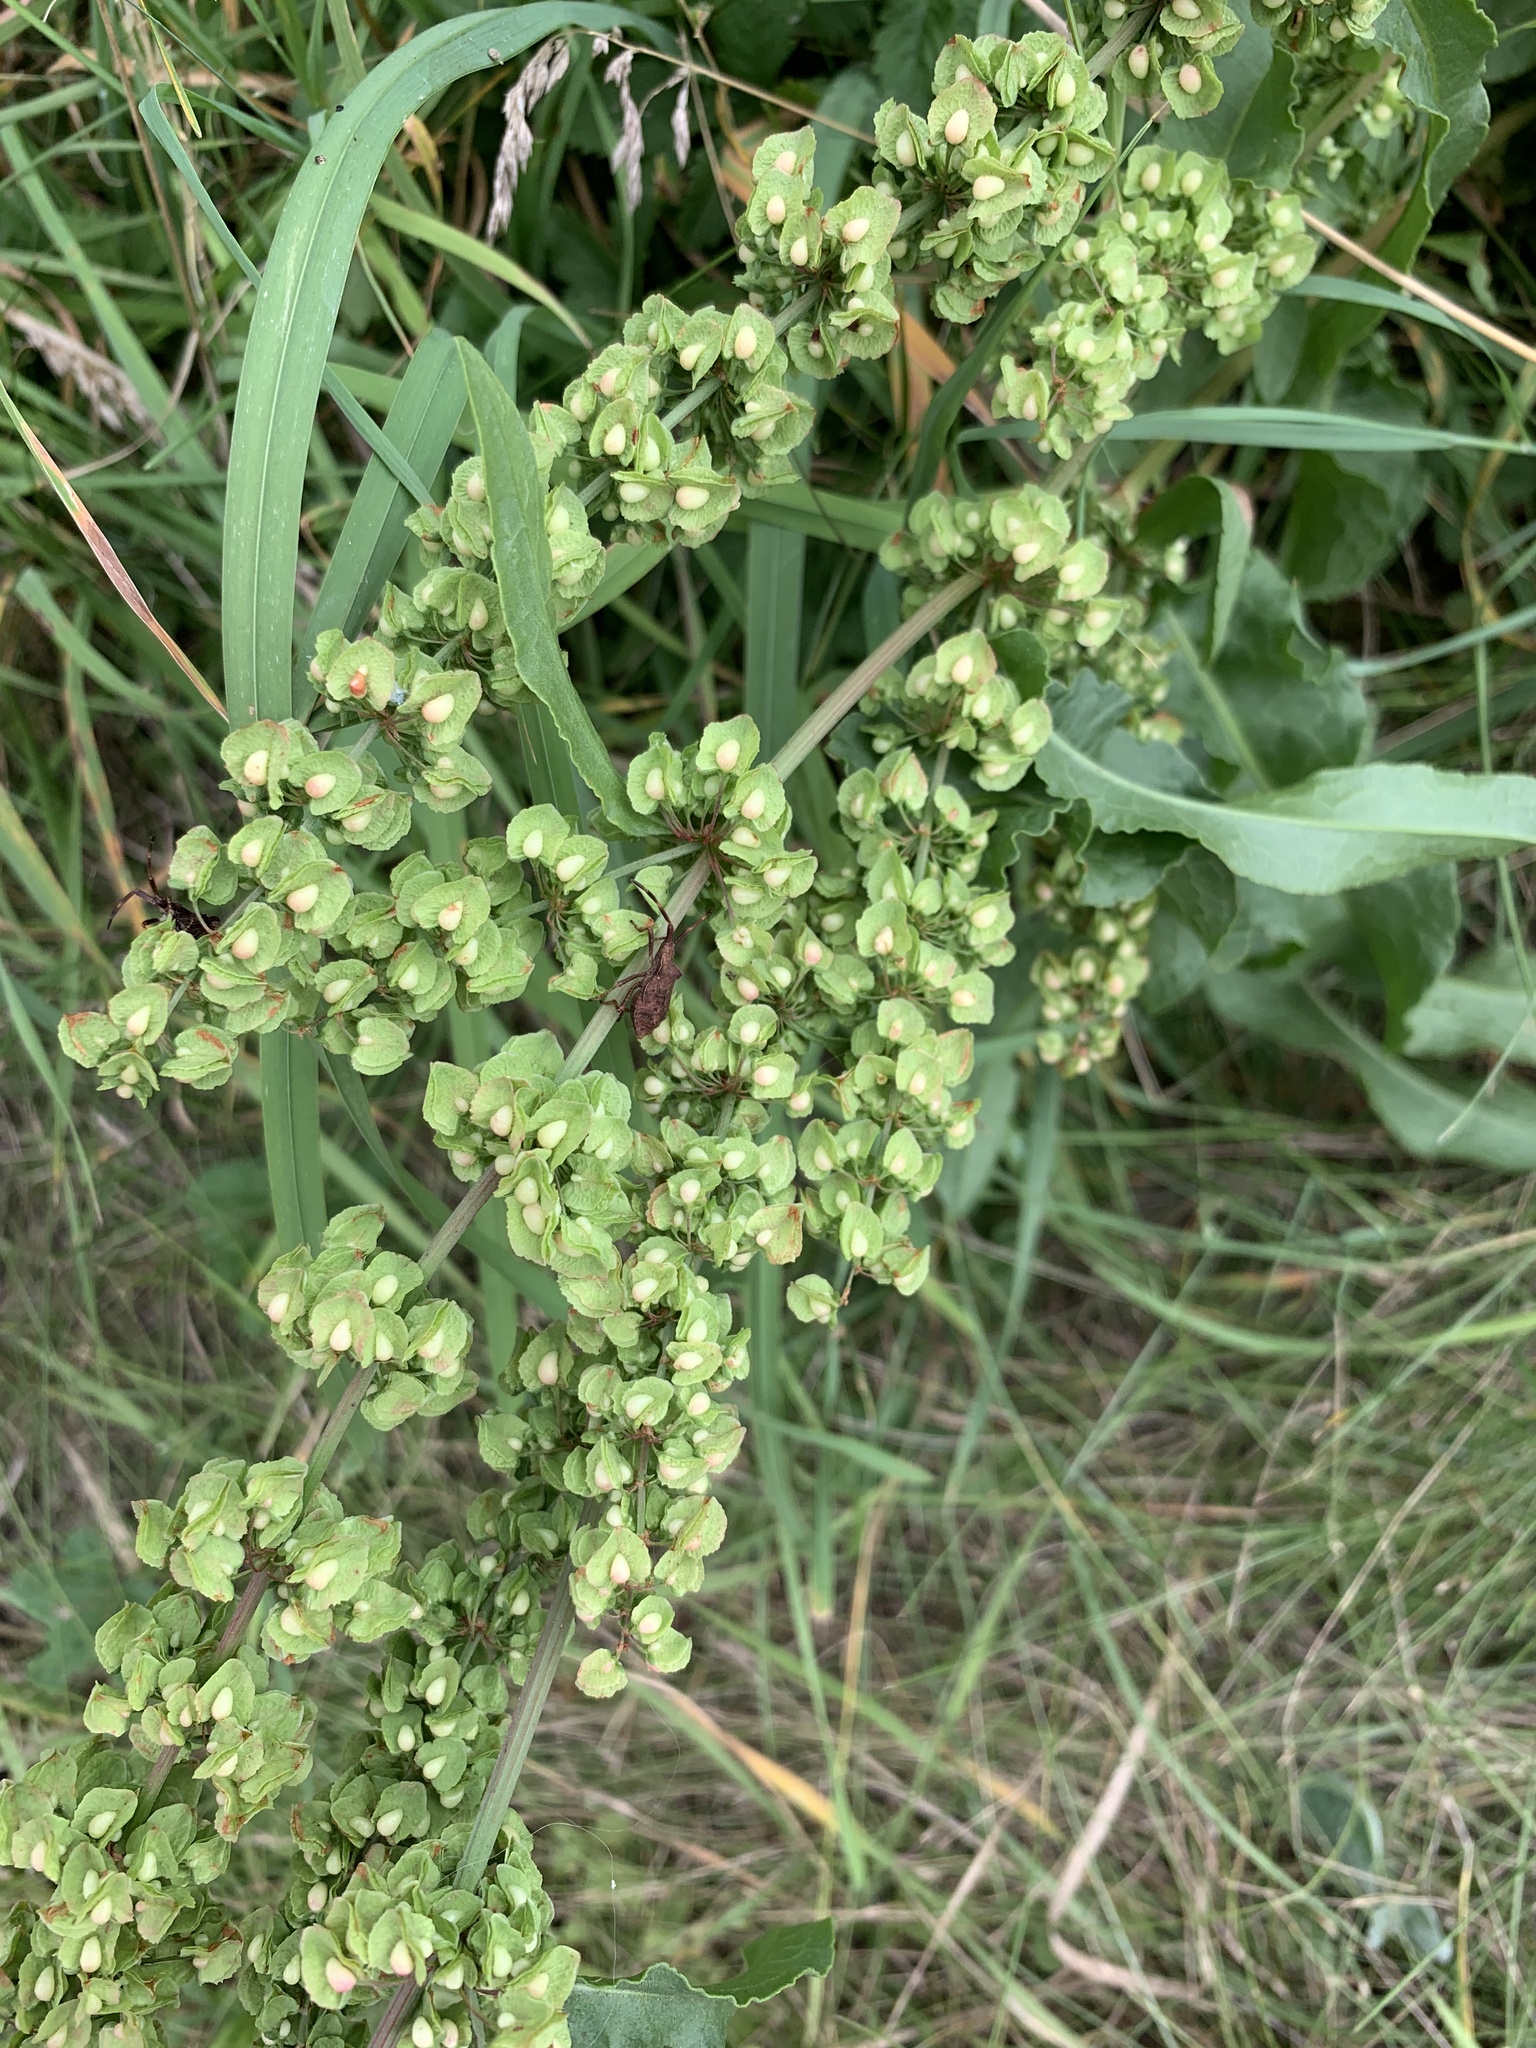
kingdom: Plantae
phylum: Tracheophyta
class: Magnoliopsida
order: Caryophyllales
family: Polygonaceae
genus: Rumex
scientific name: Rumex crispus
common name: Curled dock
